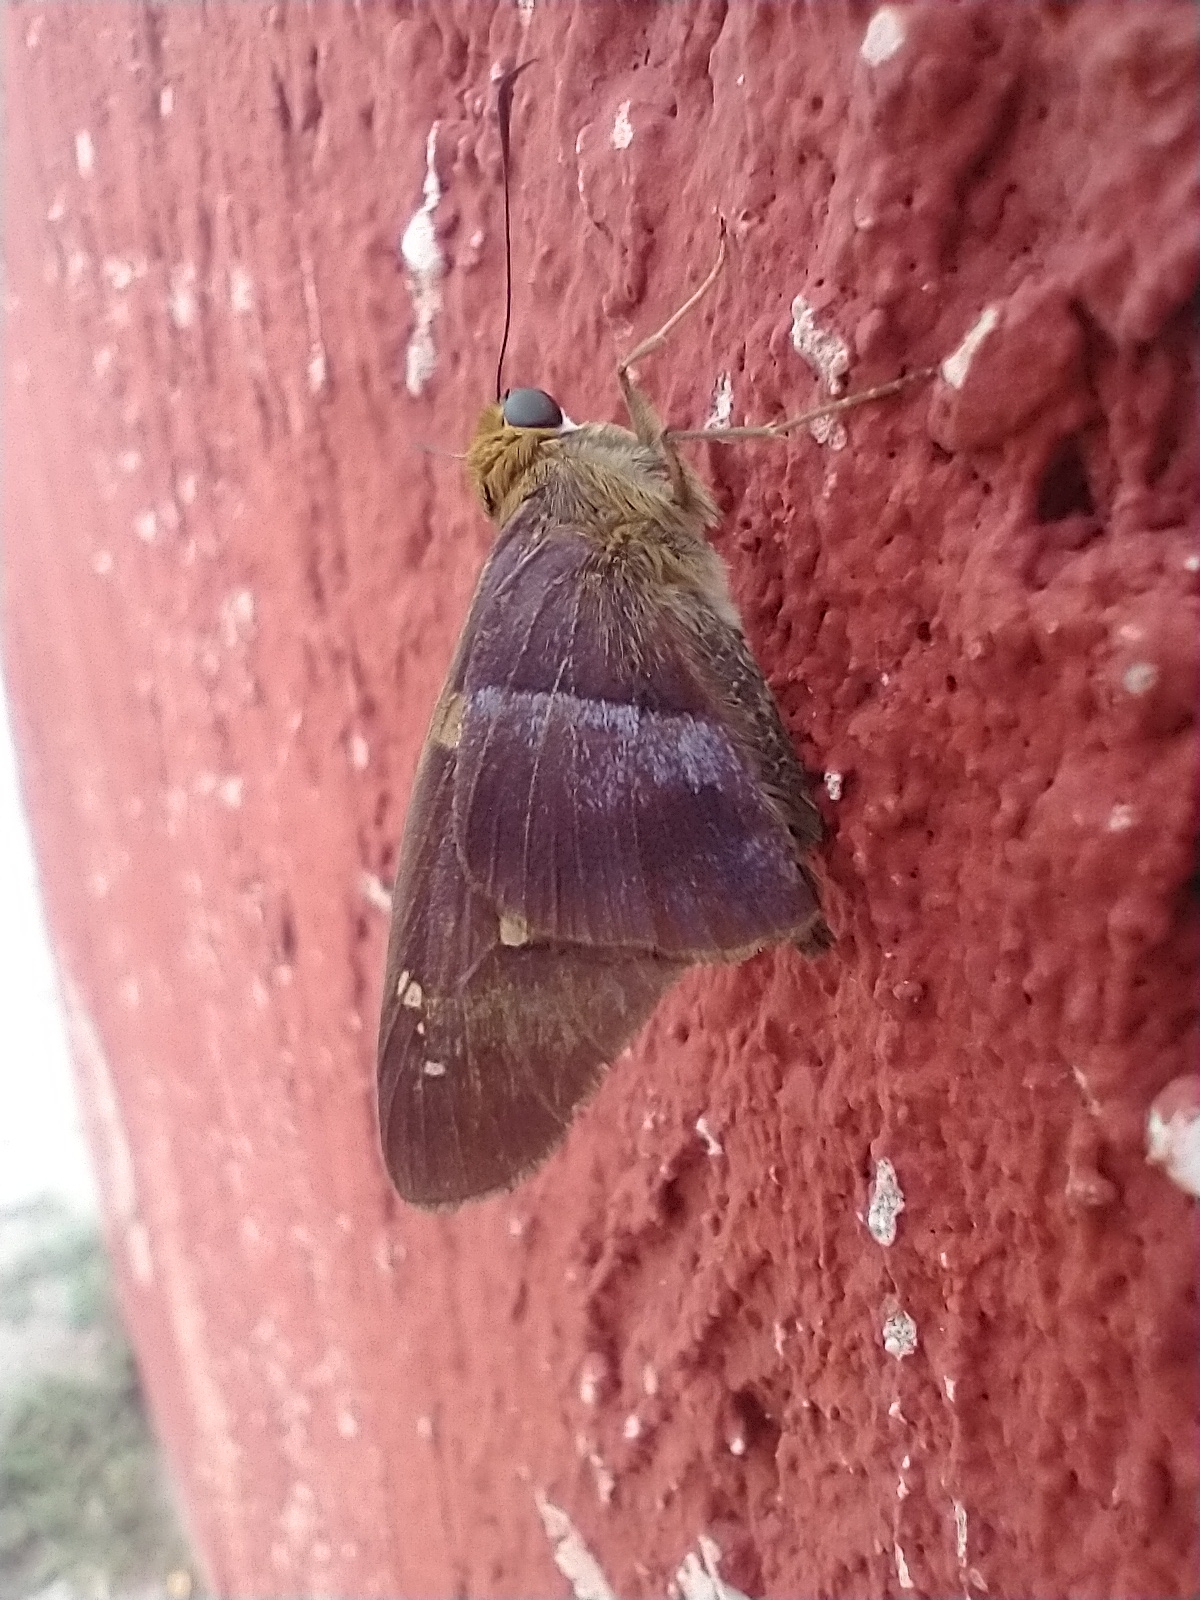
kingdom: Animalia
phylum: Arthropoda
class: Insecta
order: Lepidoptera
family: Hesperiidae
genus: Aguna
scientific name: Aguna asander
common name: Gold-spotted aguna
